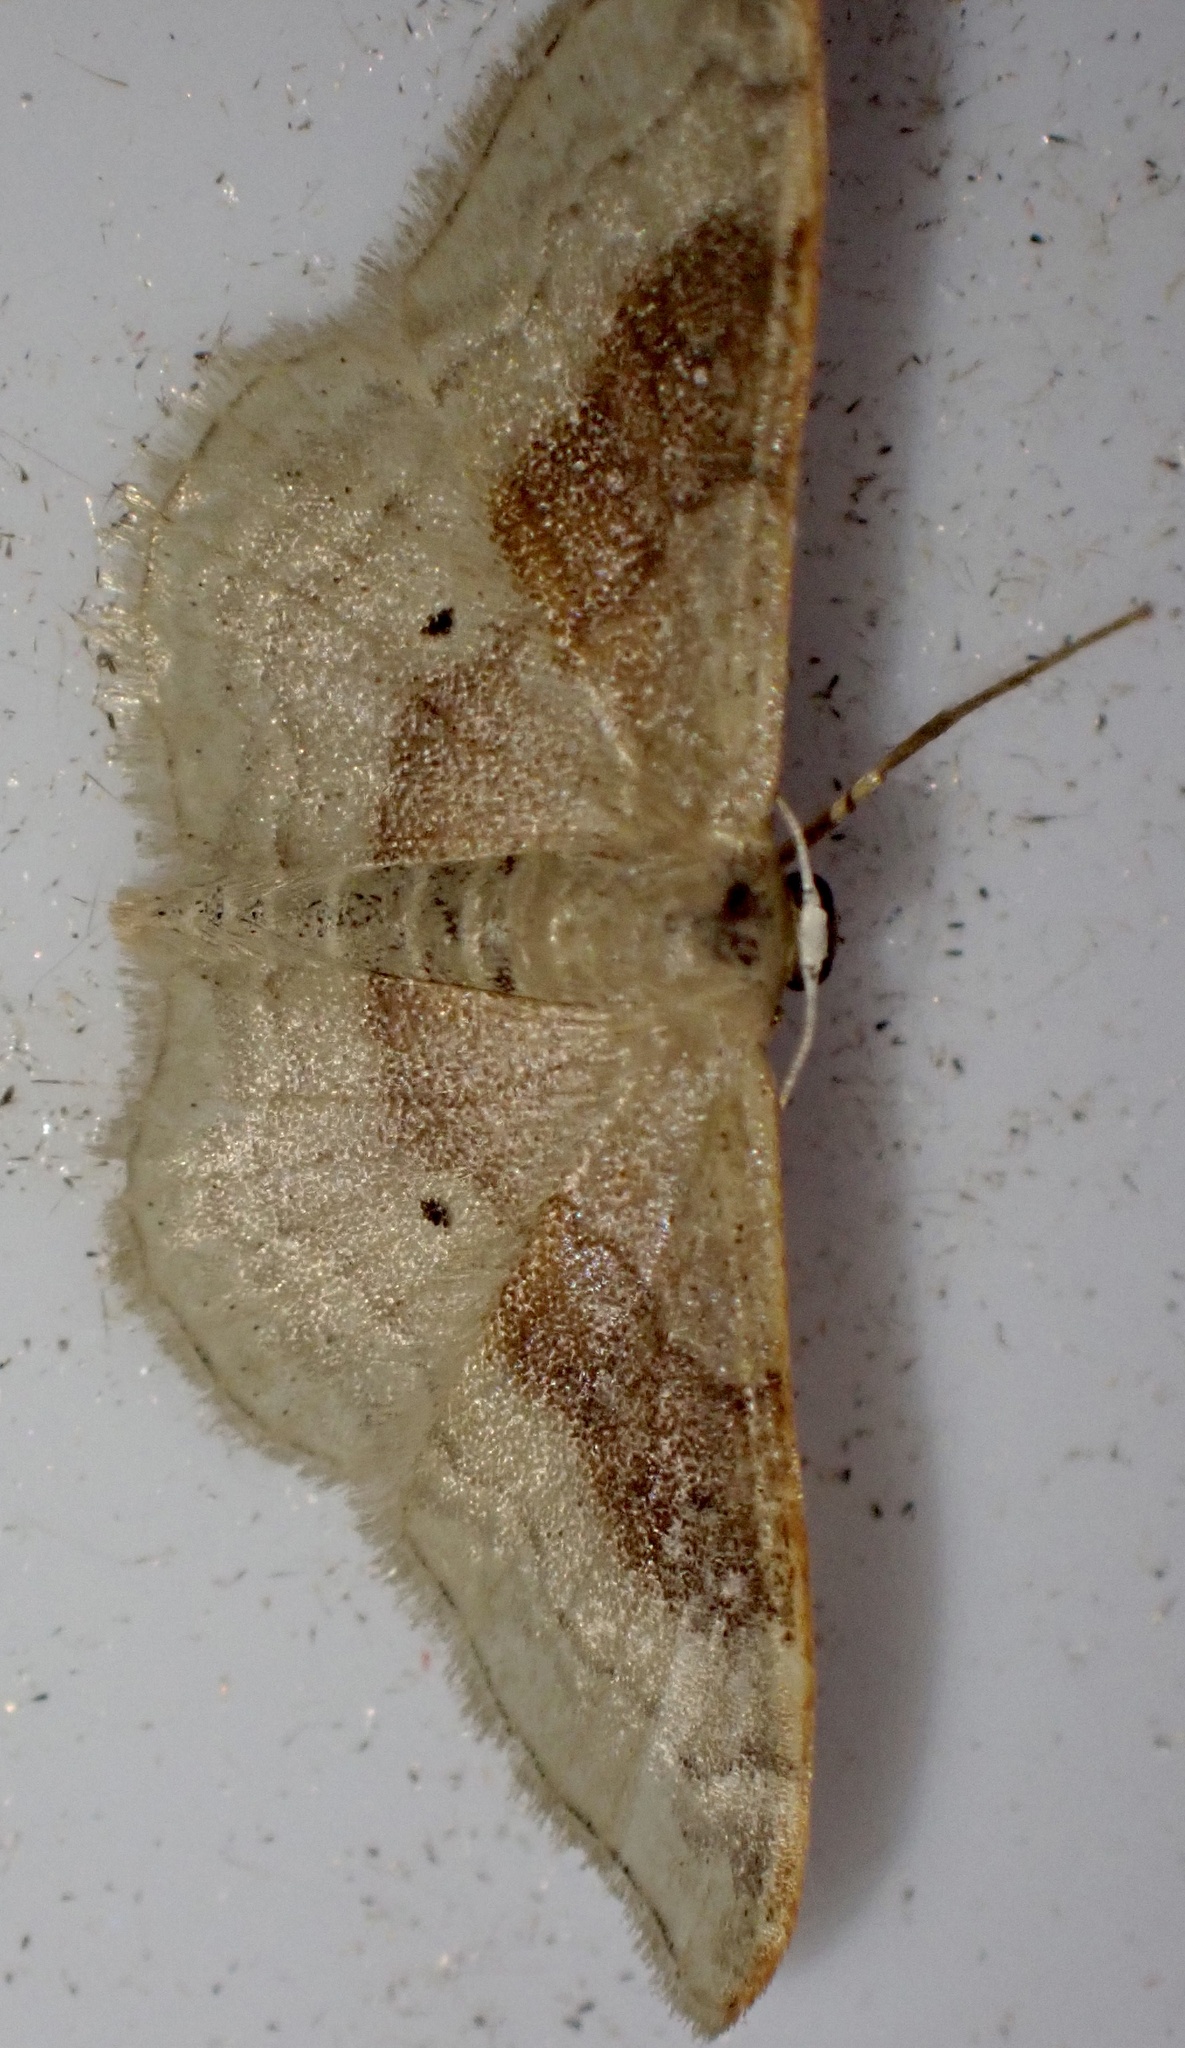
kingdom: Animalia
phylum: Arthropoda
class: Insecta
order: Lepidoptera
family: Geometridae
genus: Idaea
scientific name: Idaea degeneraria
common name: Portland ribbon wave
